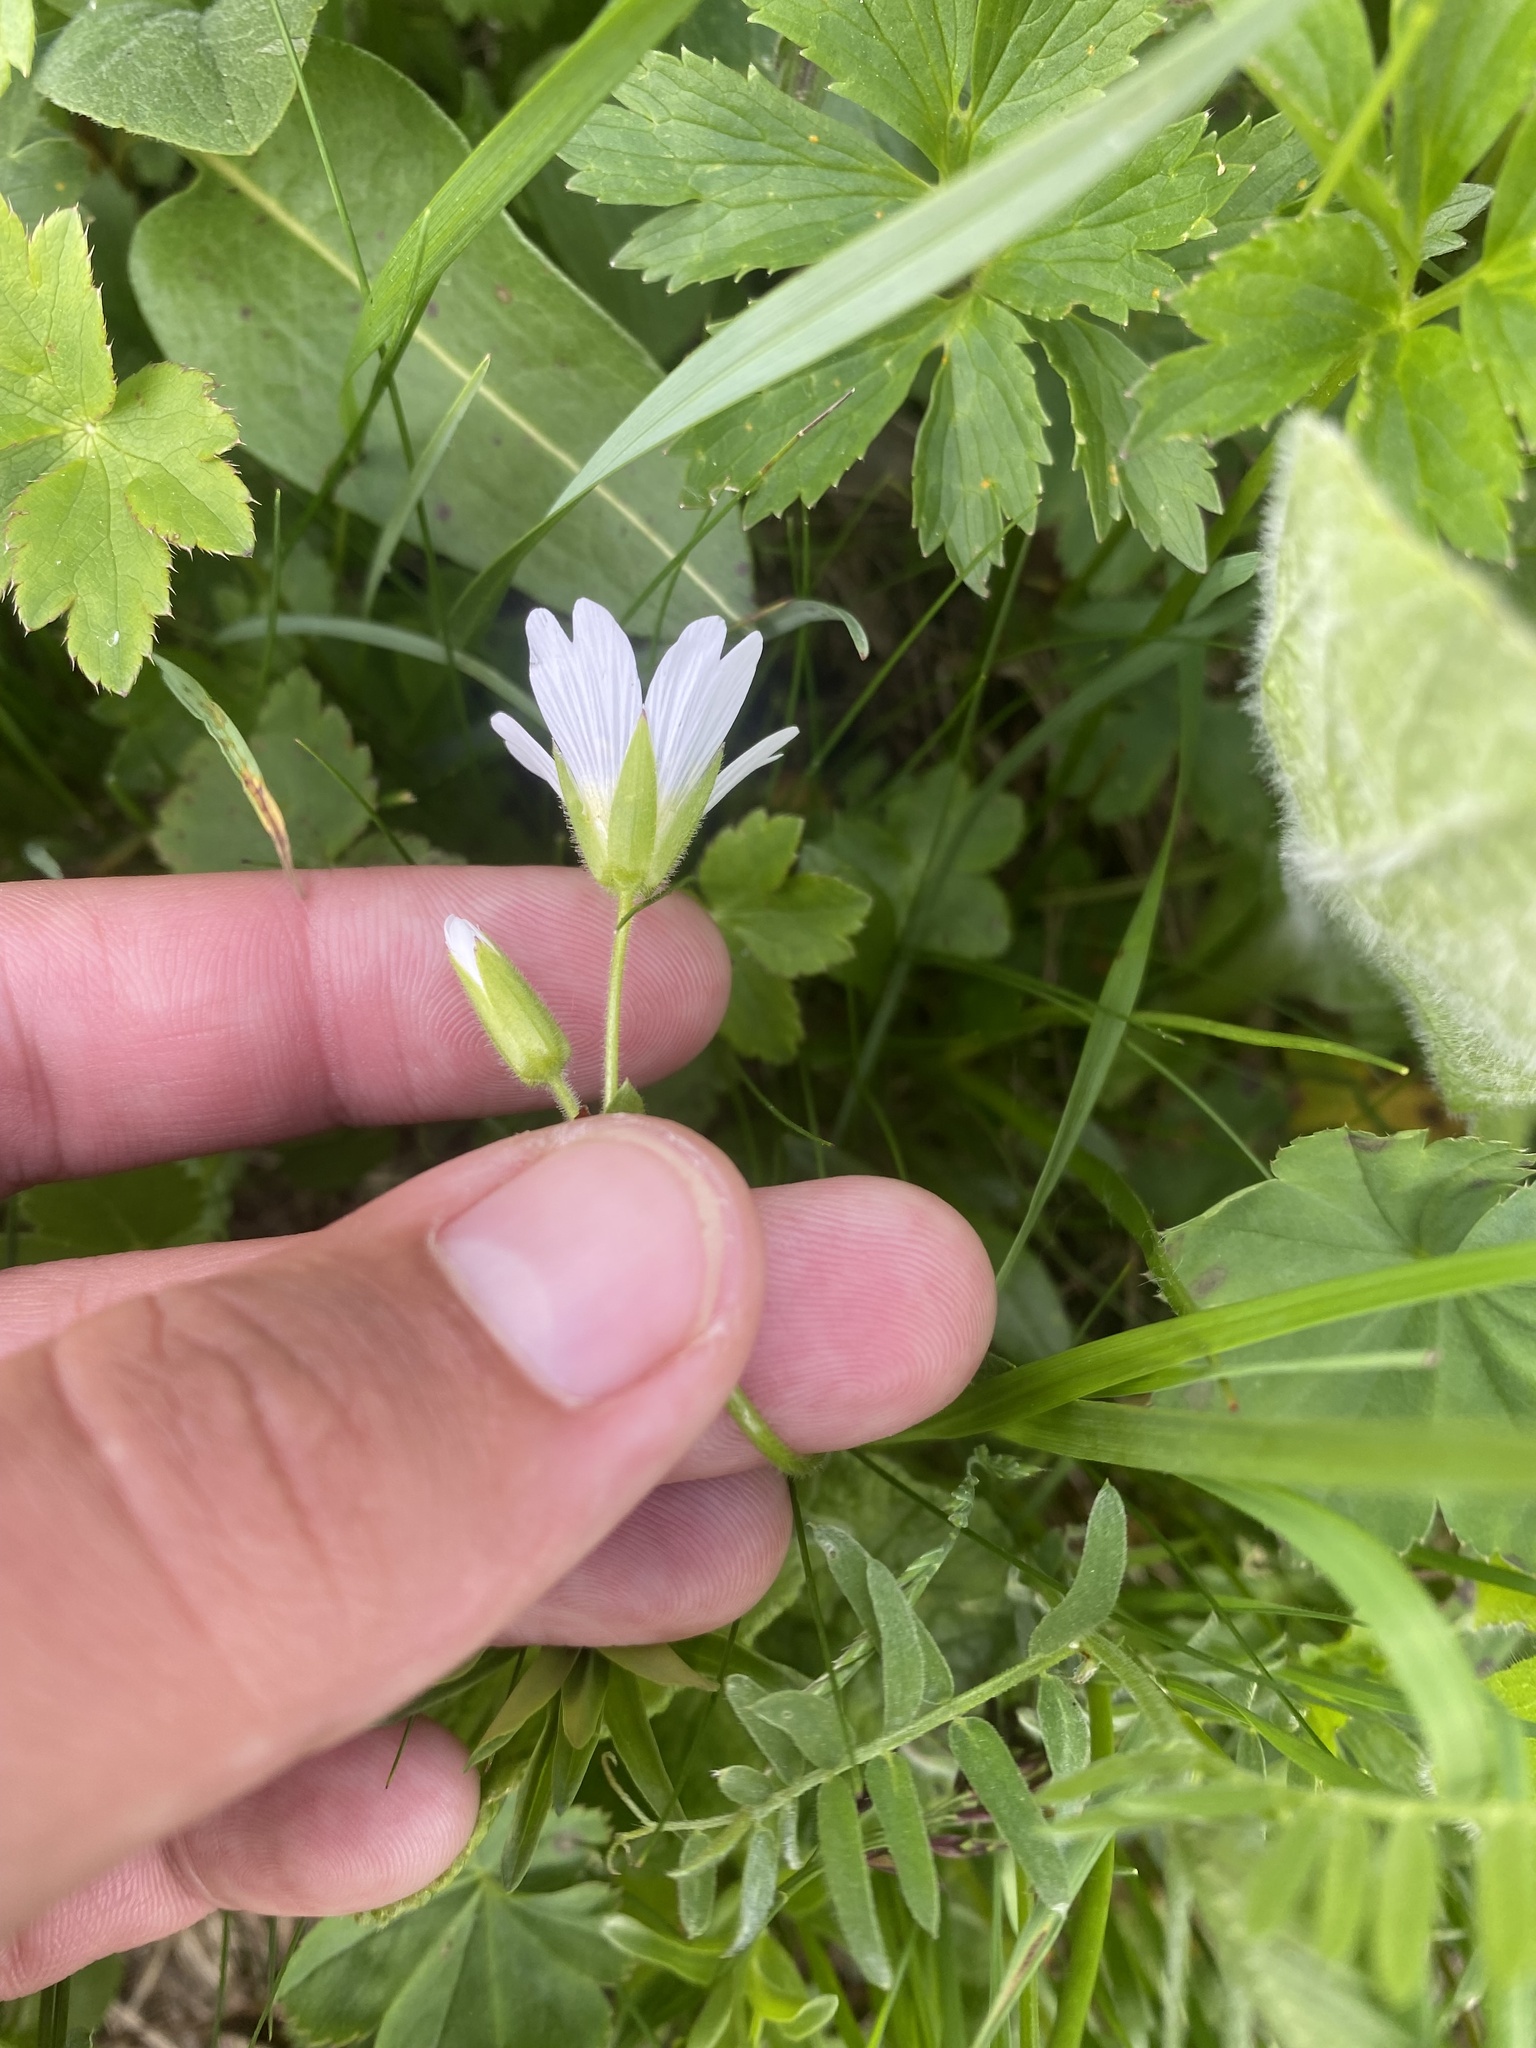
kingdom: Plantae
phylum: Tracheophyta
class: Magnoliopsida
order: Caryophyllales
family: Caryophyllaceae
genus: Cerastium
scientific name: Cerastium nemorale
